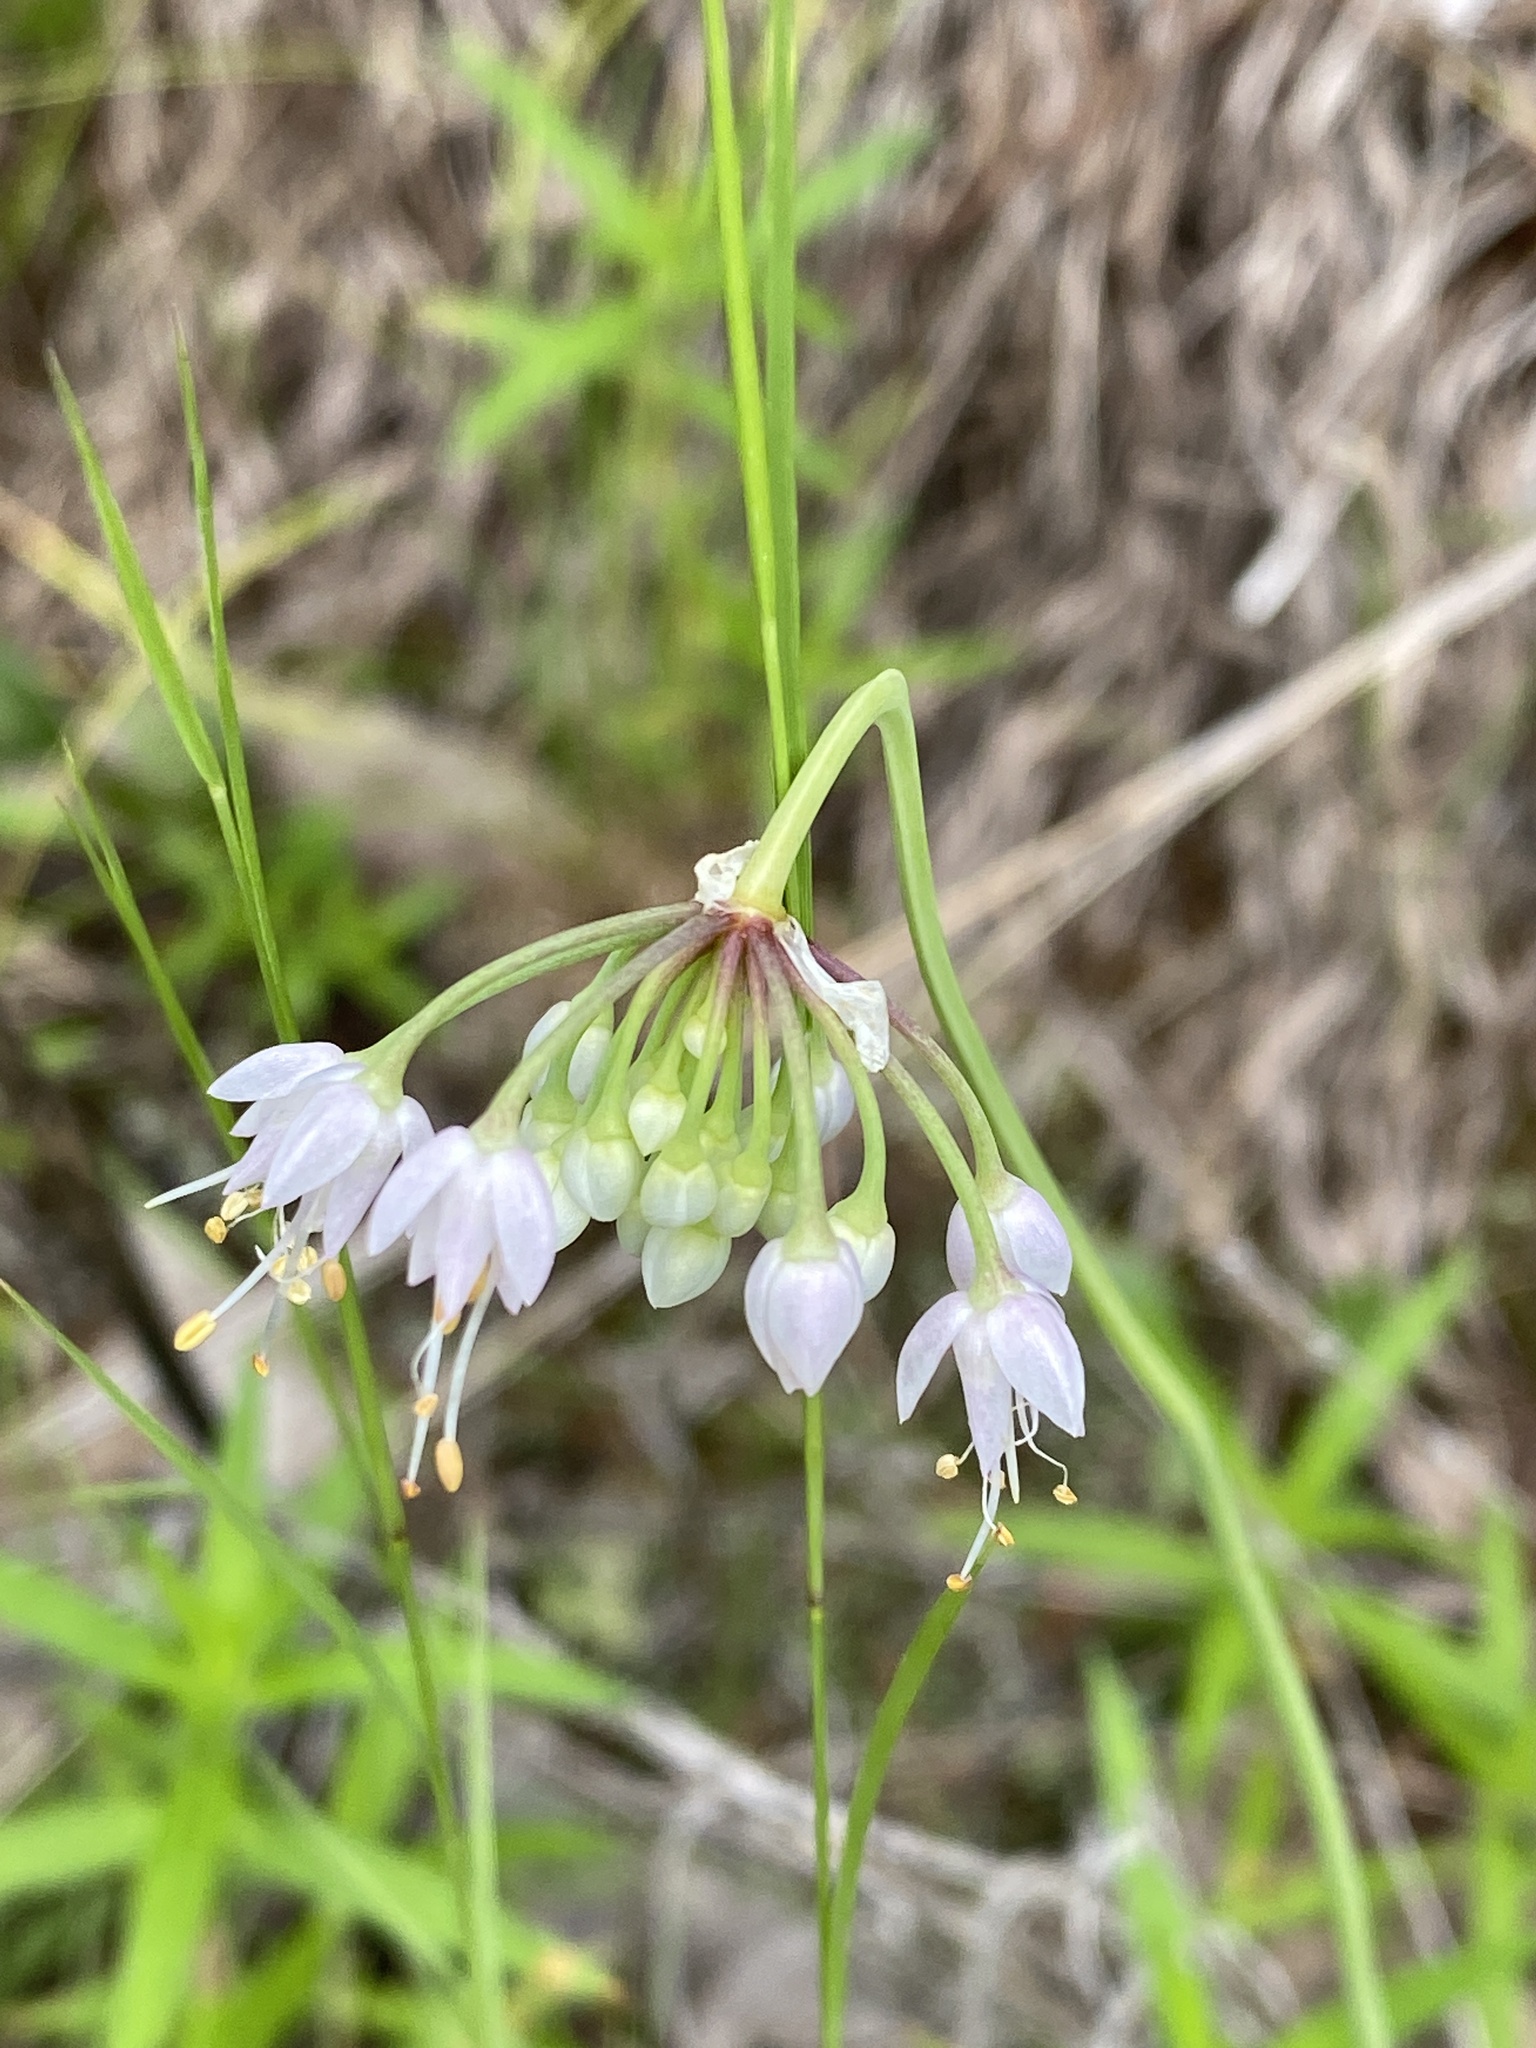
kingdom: Plantae
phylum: Tracheophyta
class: Liliopsida
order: Asparagales
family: Amaryllidaceae
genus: Allium
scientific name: Allium cernuum
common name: Nodding onion
